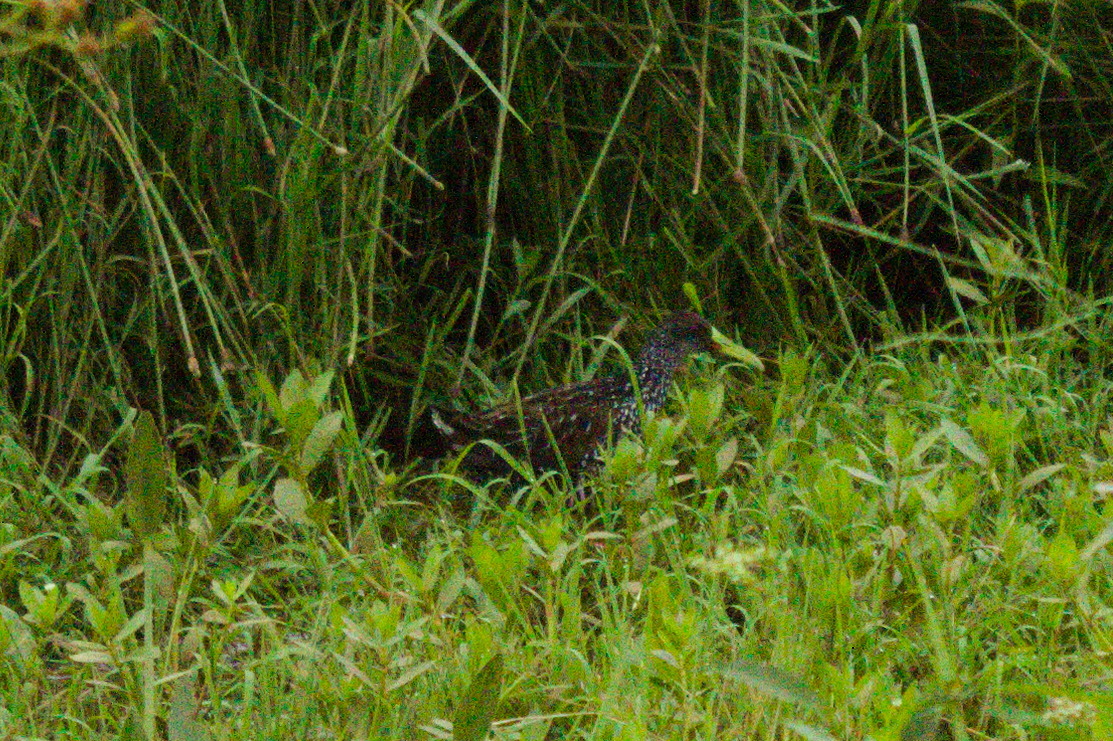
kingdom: Animalia
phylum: Chordata
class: Aves
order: Gruiformes
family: Rallidae
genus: Pardirallus
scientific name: Pardirallus maculatus
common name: Spotted rail
